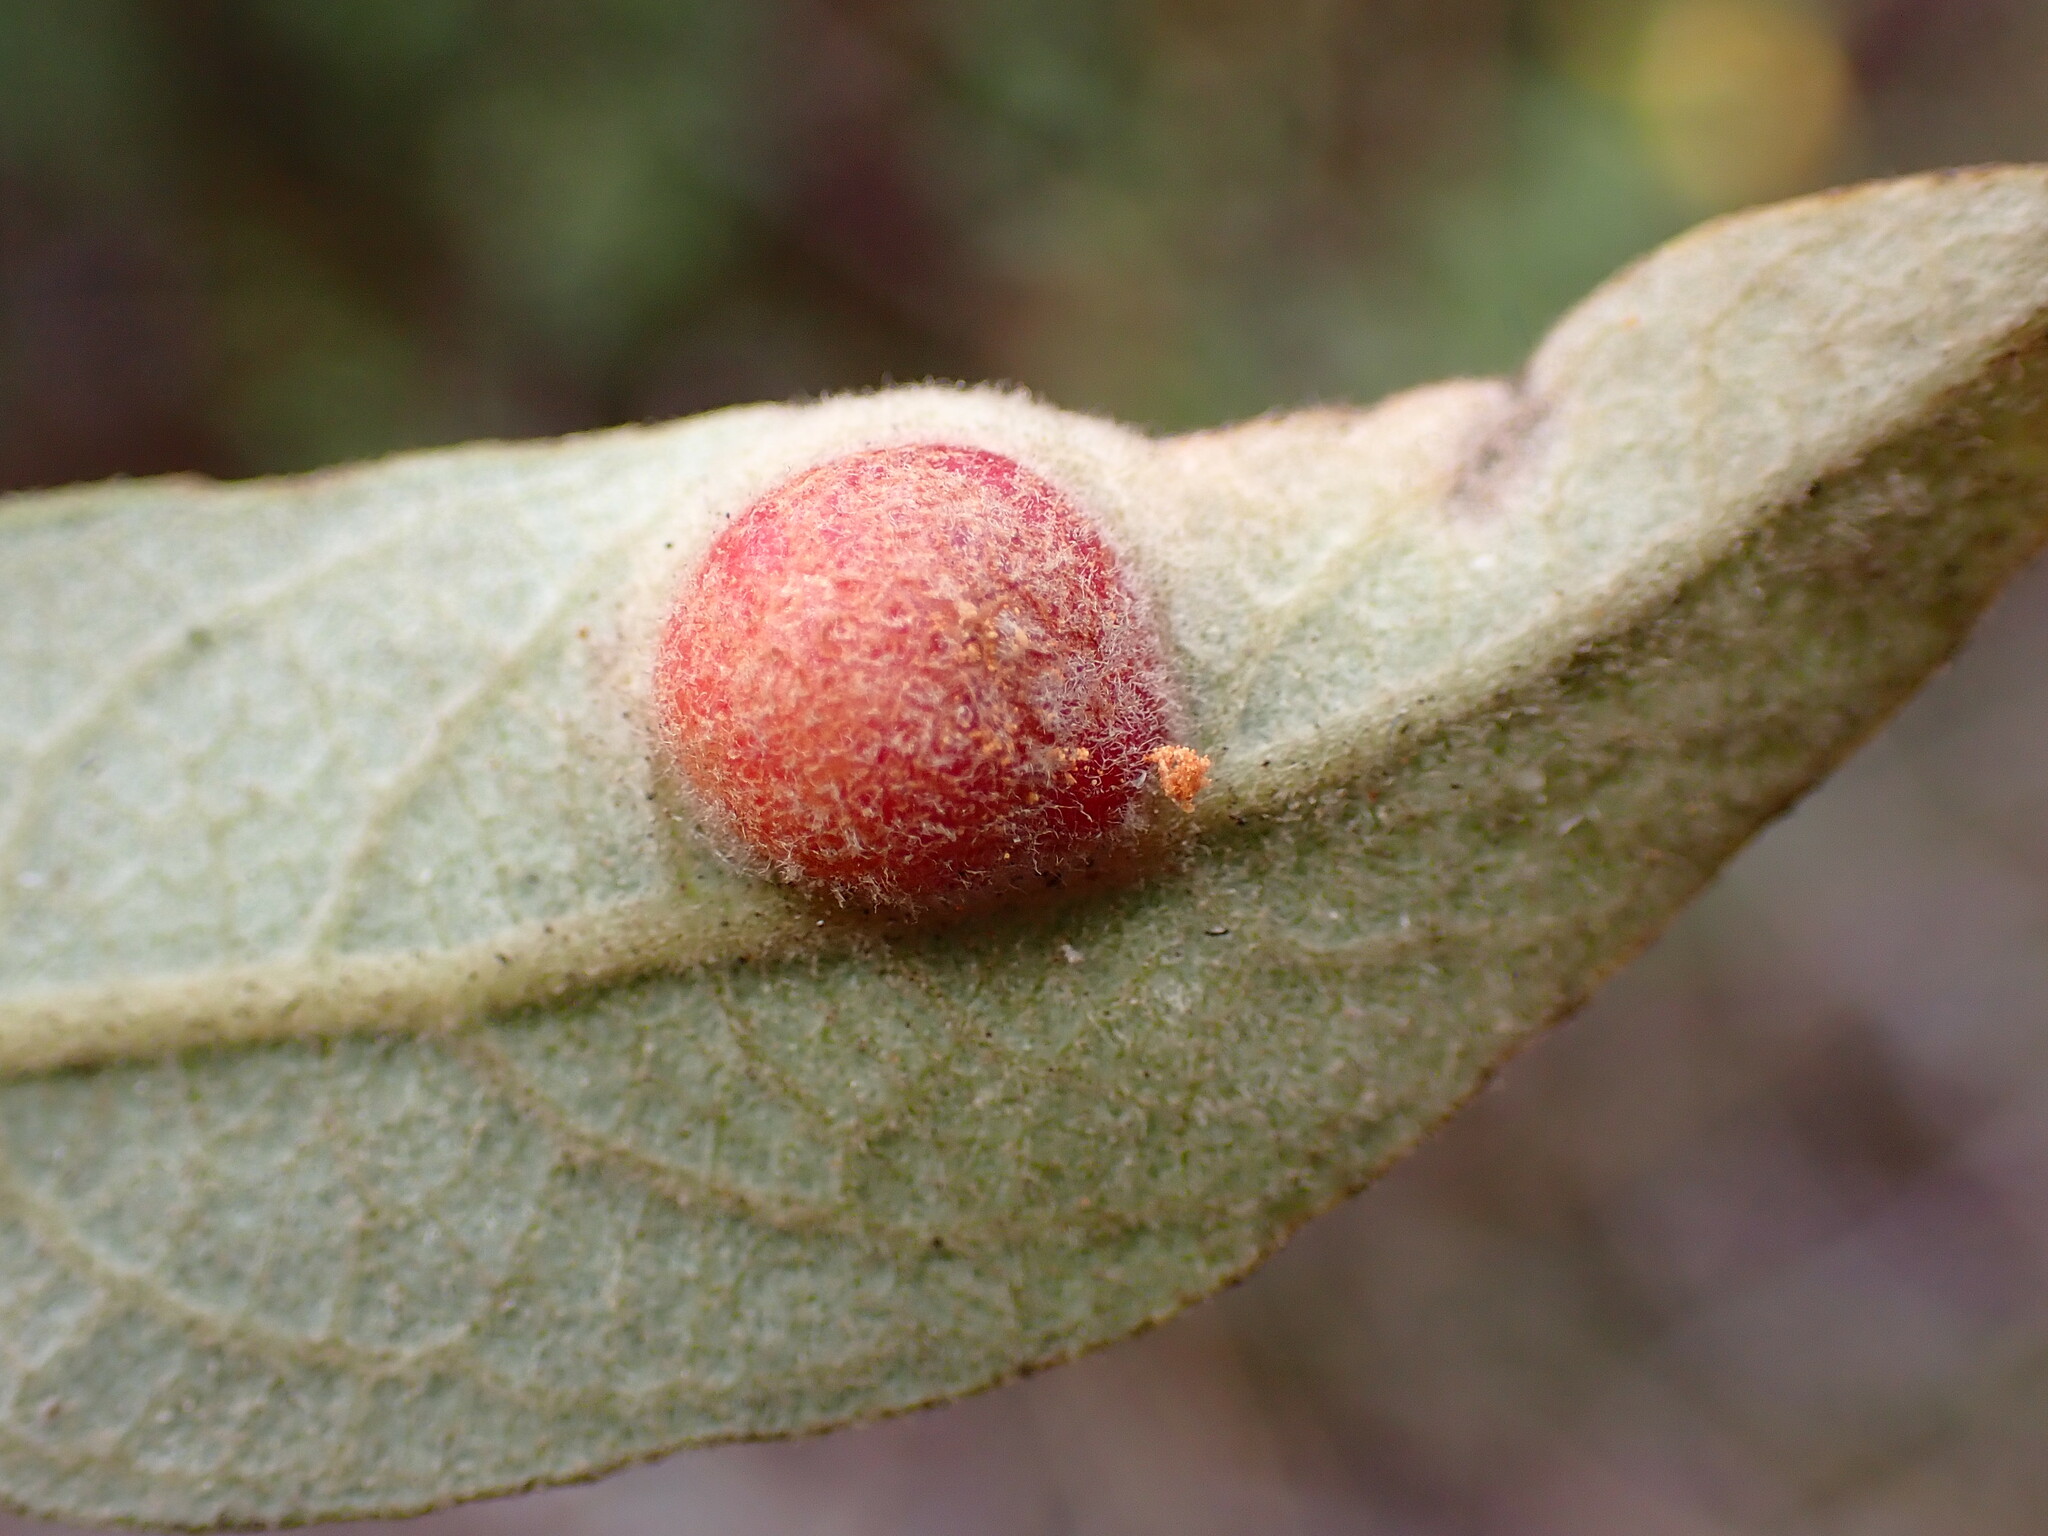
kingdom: Animalia
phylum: Arthropoda
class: Insecta
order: Hymenoptera
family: Tenthredinidae
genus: Euura
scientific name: Euura
